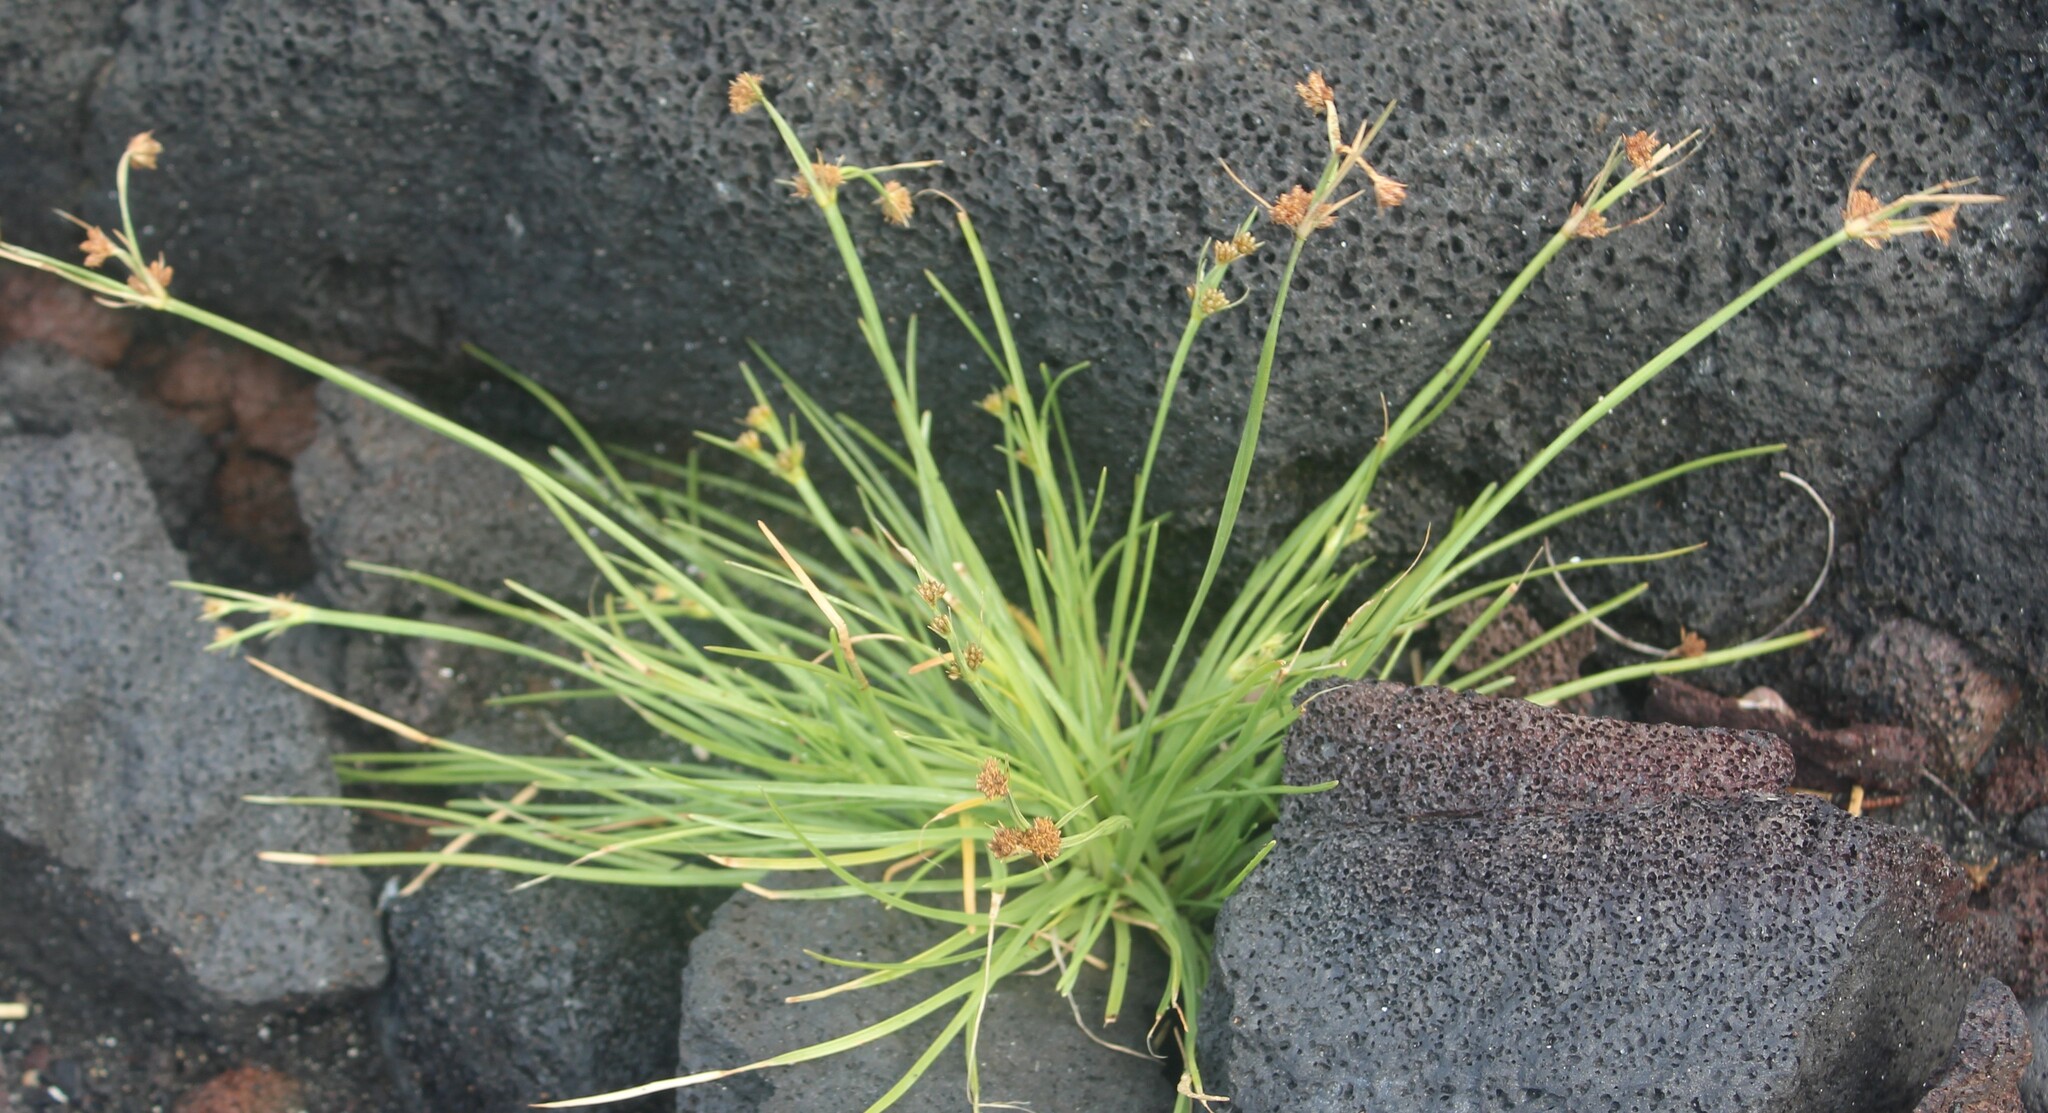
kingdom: Plantae
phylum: Tracheophyta
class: Liliopsida
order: Poales
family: Cyperaceae
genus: Fimbristylis
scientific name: Fimbristylis cymosa
